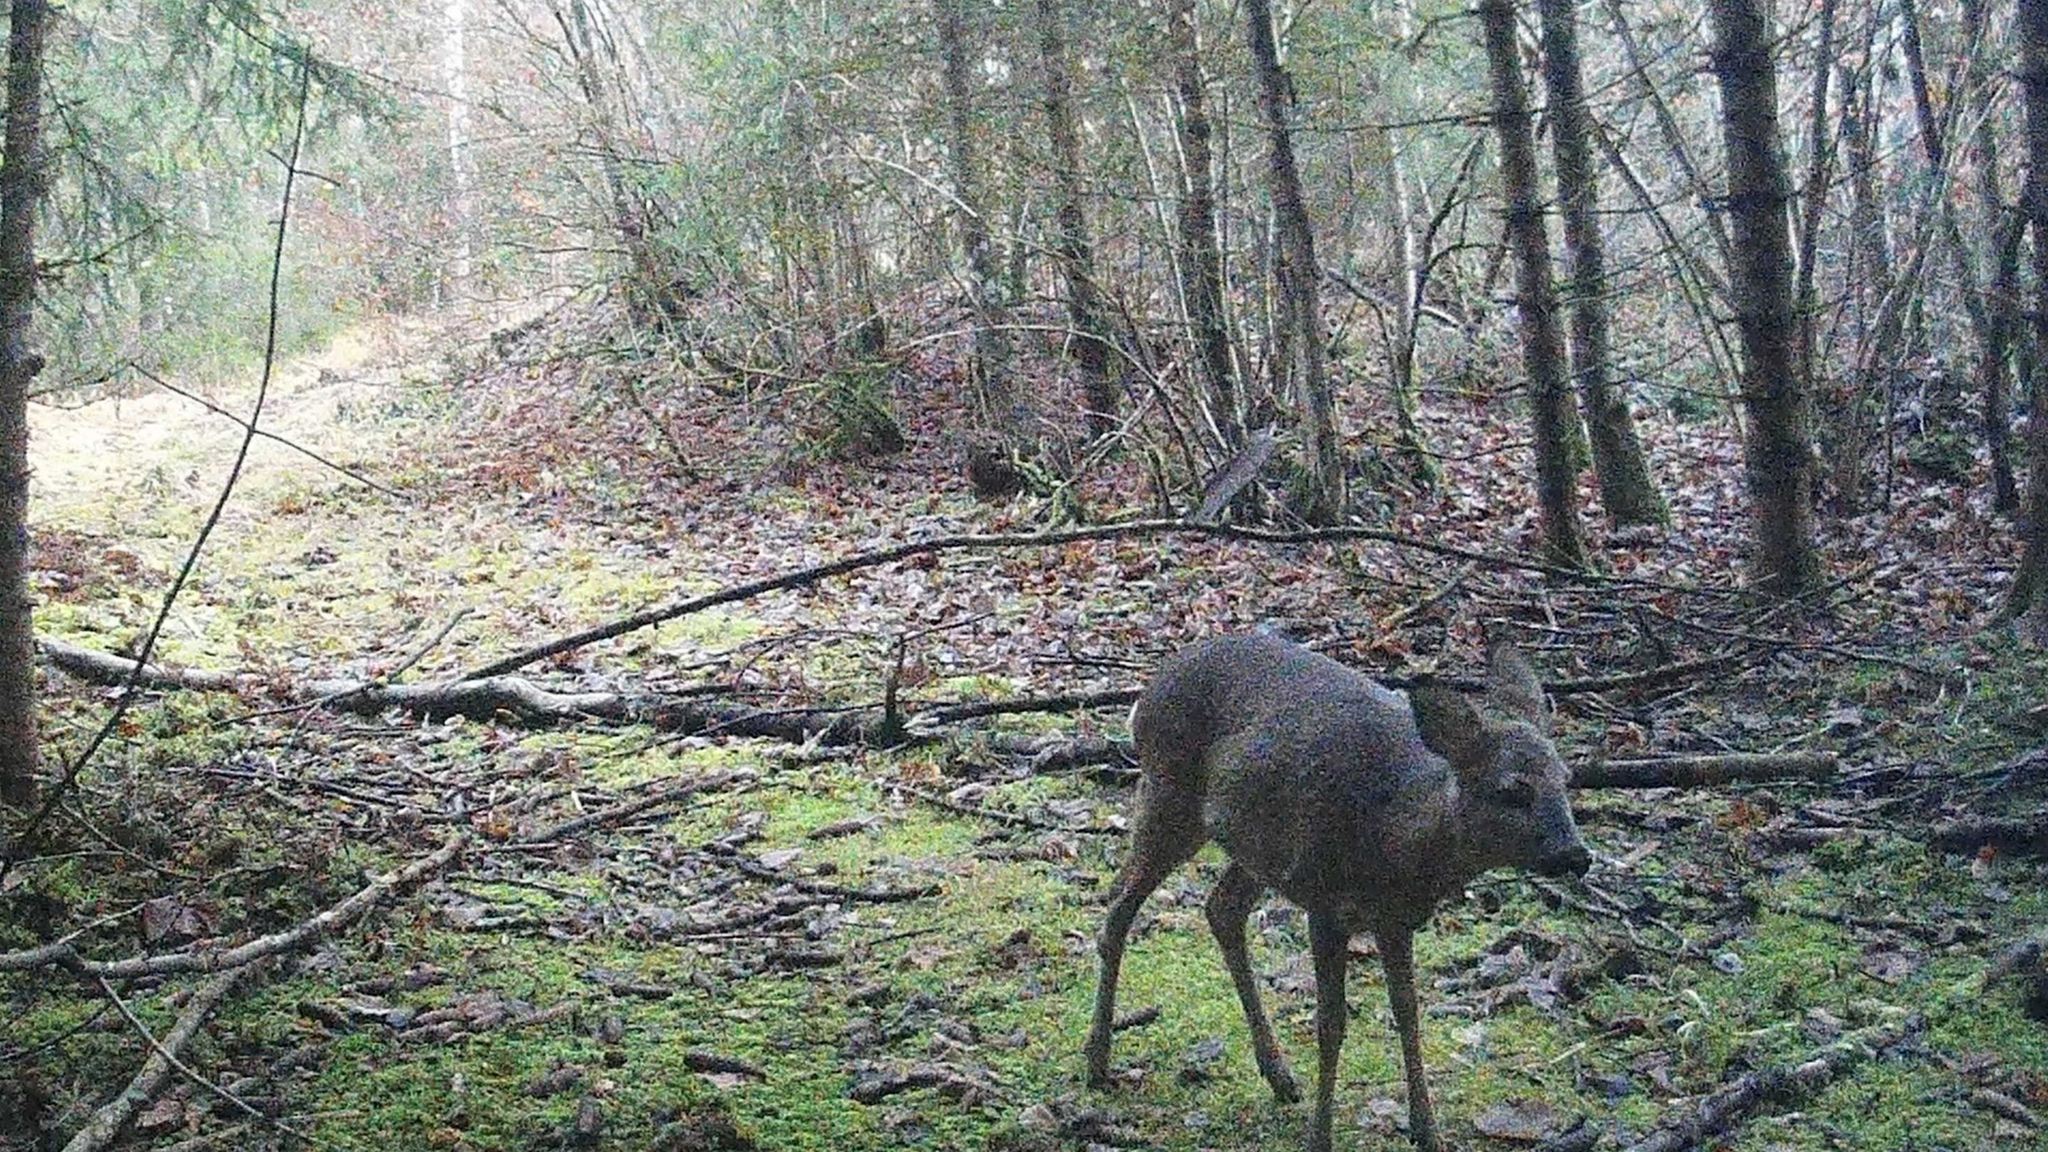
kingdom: Animalia
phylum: Chordata
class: Mammalia
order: Artiodactyla
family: Cervidae
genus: Capreolus
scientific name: Capreolus capreolus
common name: Western roe deer
